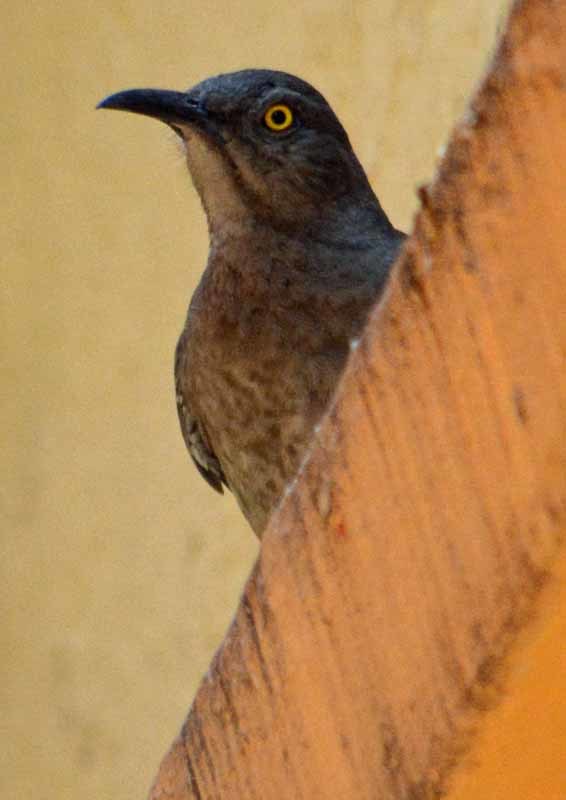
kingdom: Animalia
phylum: Chordata
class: Aves
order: Passeriformes
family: Mimidae
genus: Toxostoma
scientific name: Toxostoma curvirostre
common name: Curve-billed thrasher
